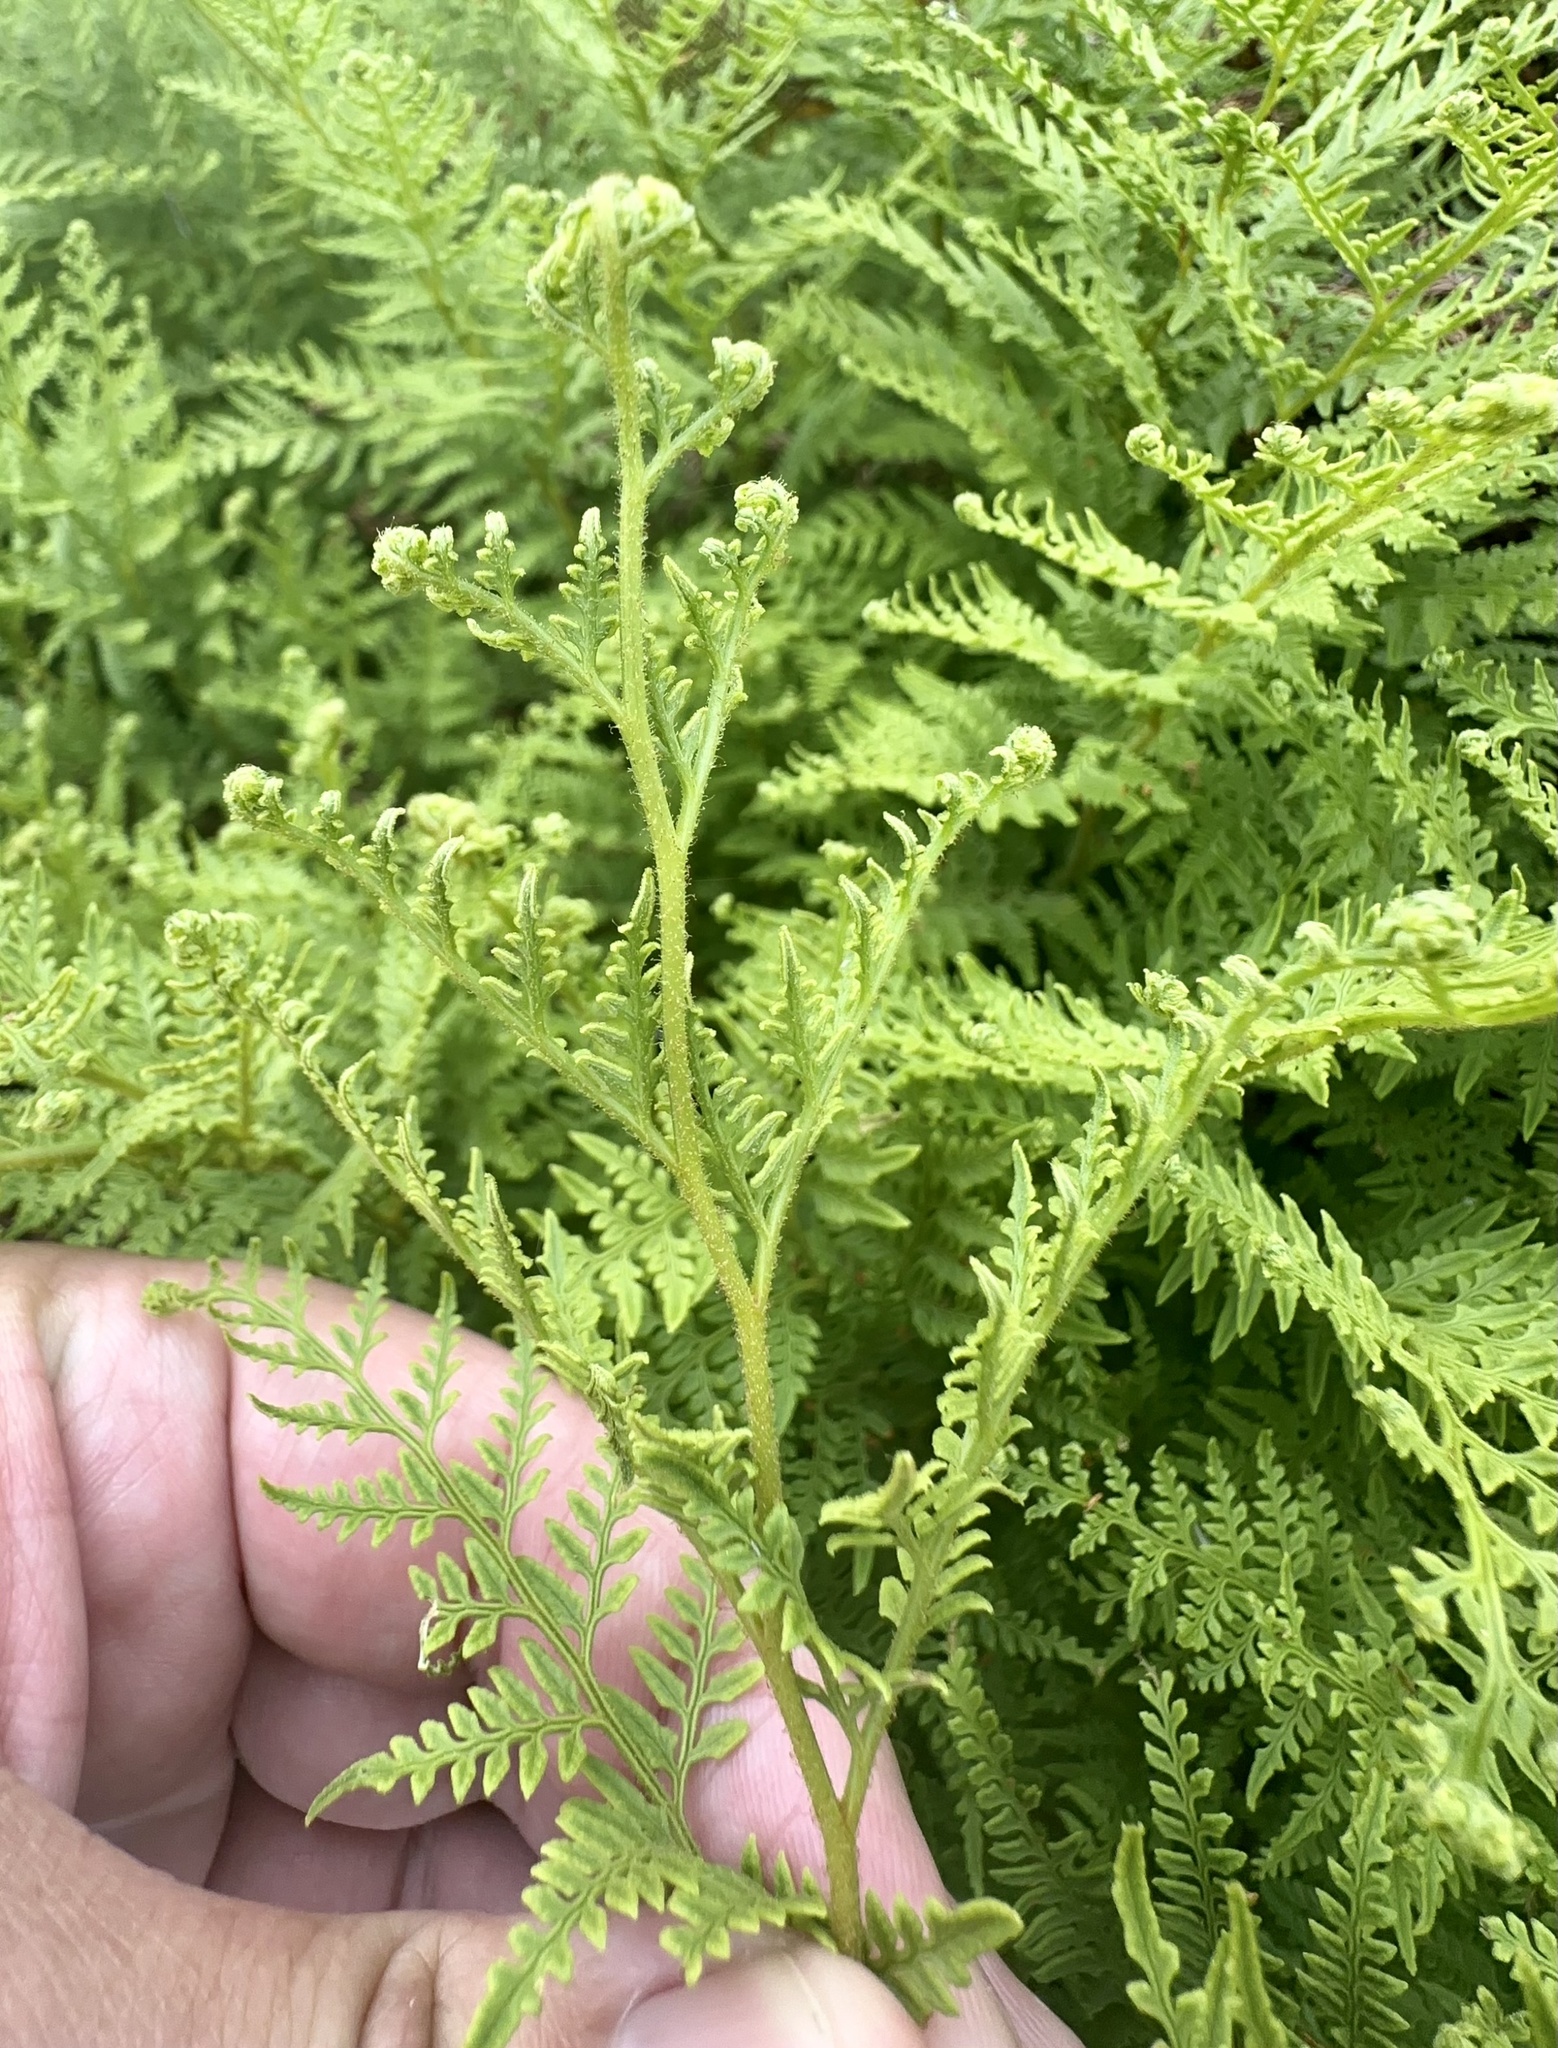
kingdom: Plantae
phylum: Tracheophyta
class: Polypodiopsida
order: Polypodiales
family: Dennstaedtiaceae
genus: Paesia
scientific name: Paesia scaberula
